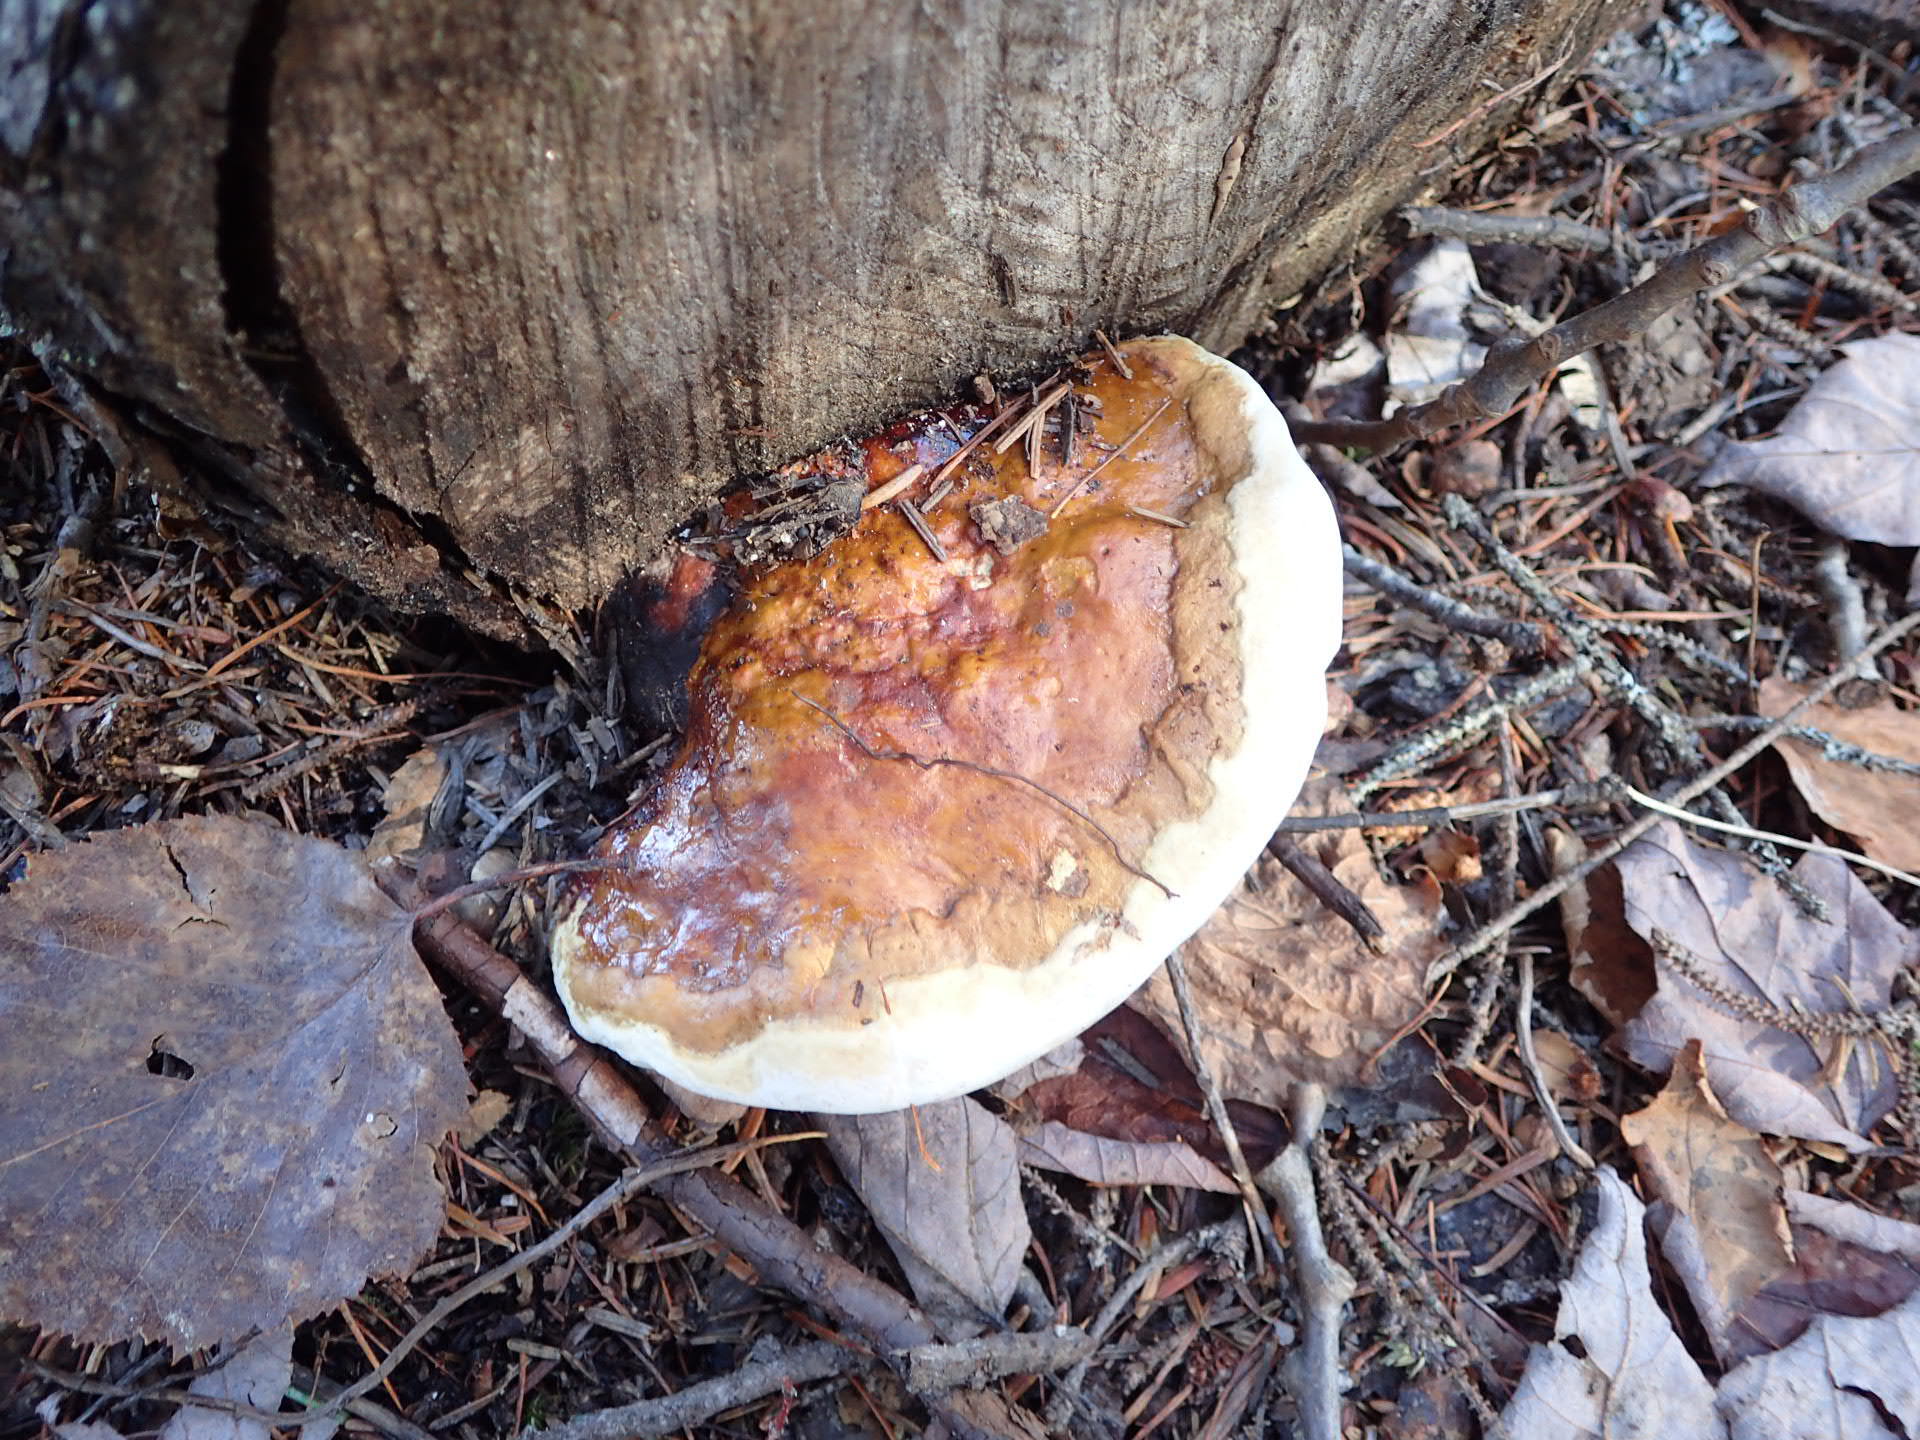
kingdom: Fungi
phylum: Basidiomycota
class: Agaricomycetes
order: Polyporales
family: Fomitopsidaceae
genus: Fomitopsis
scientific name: Fomitopsis mounceae
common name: Northern red belt
